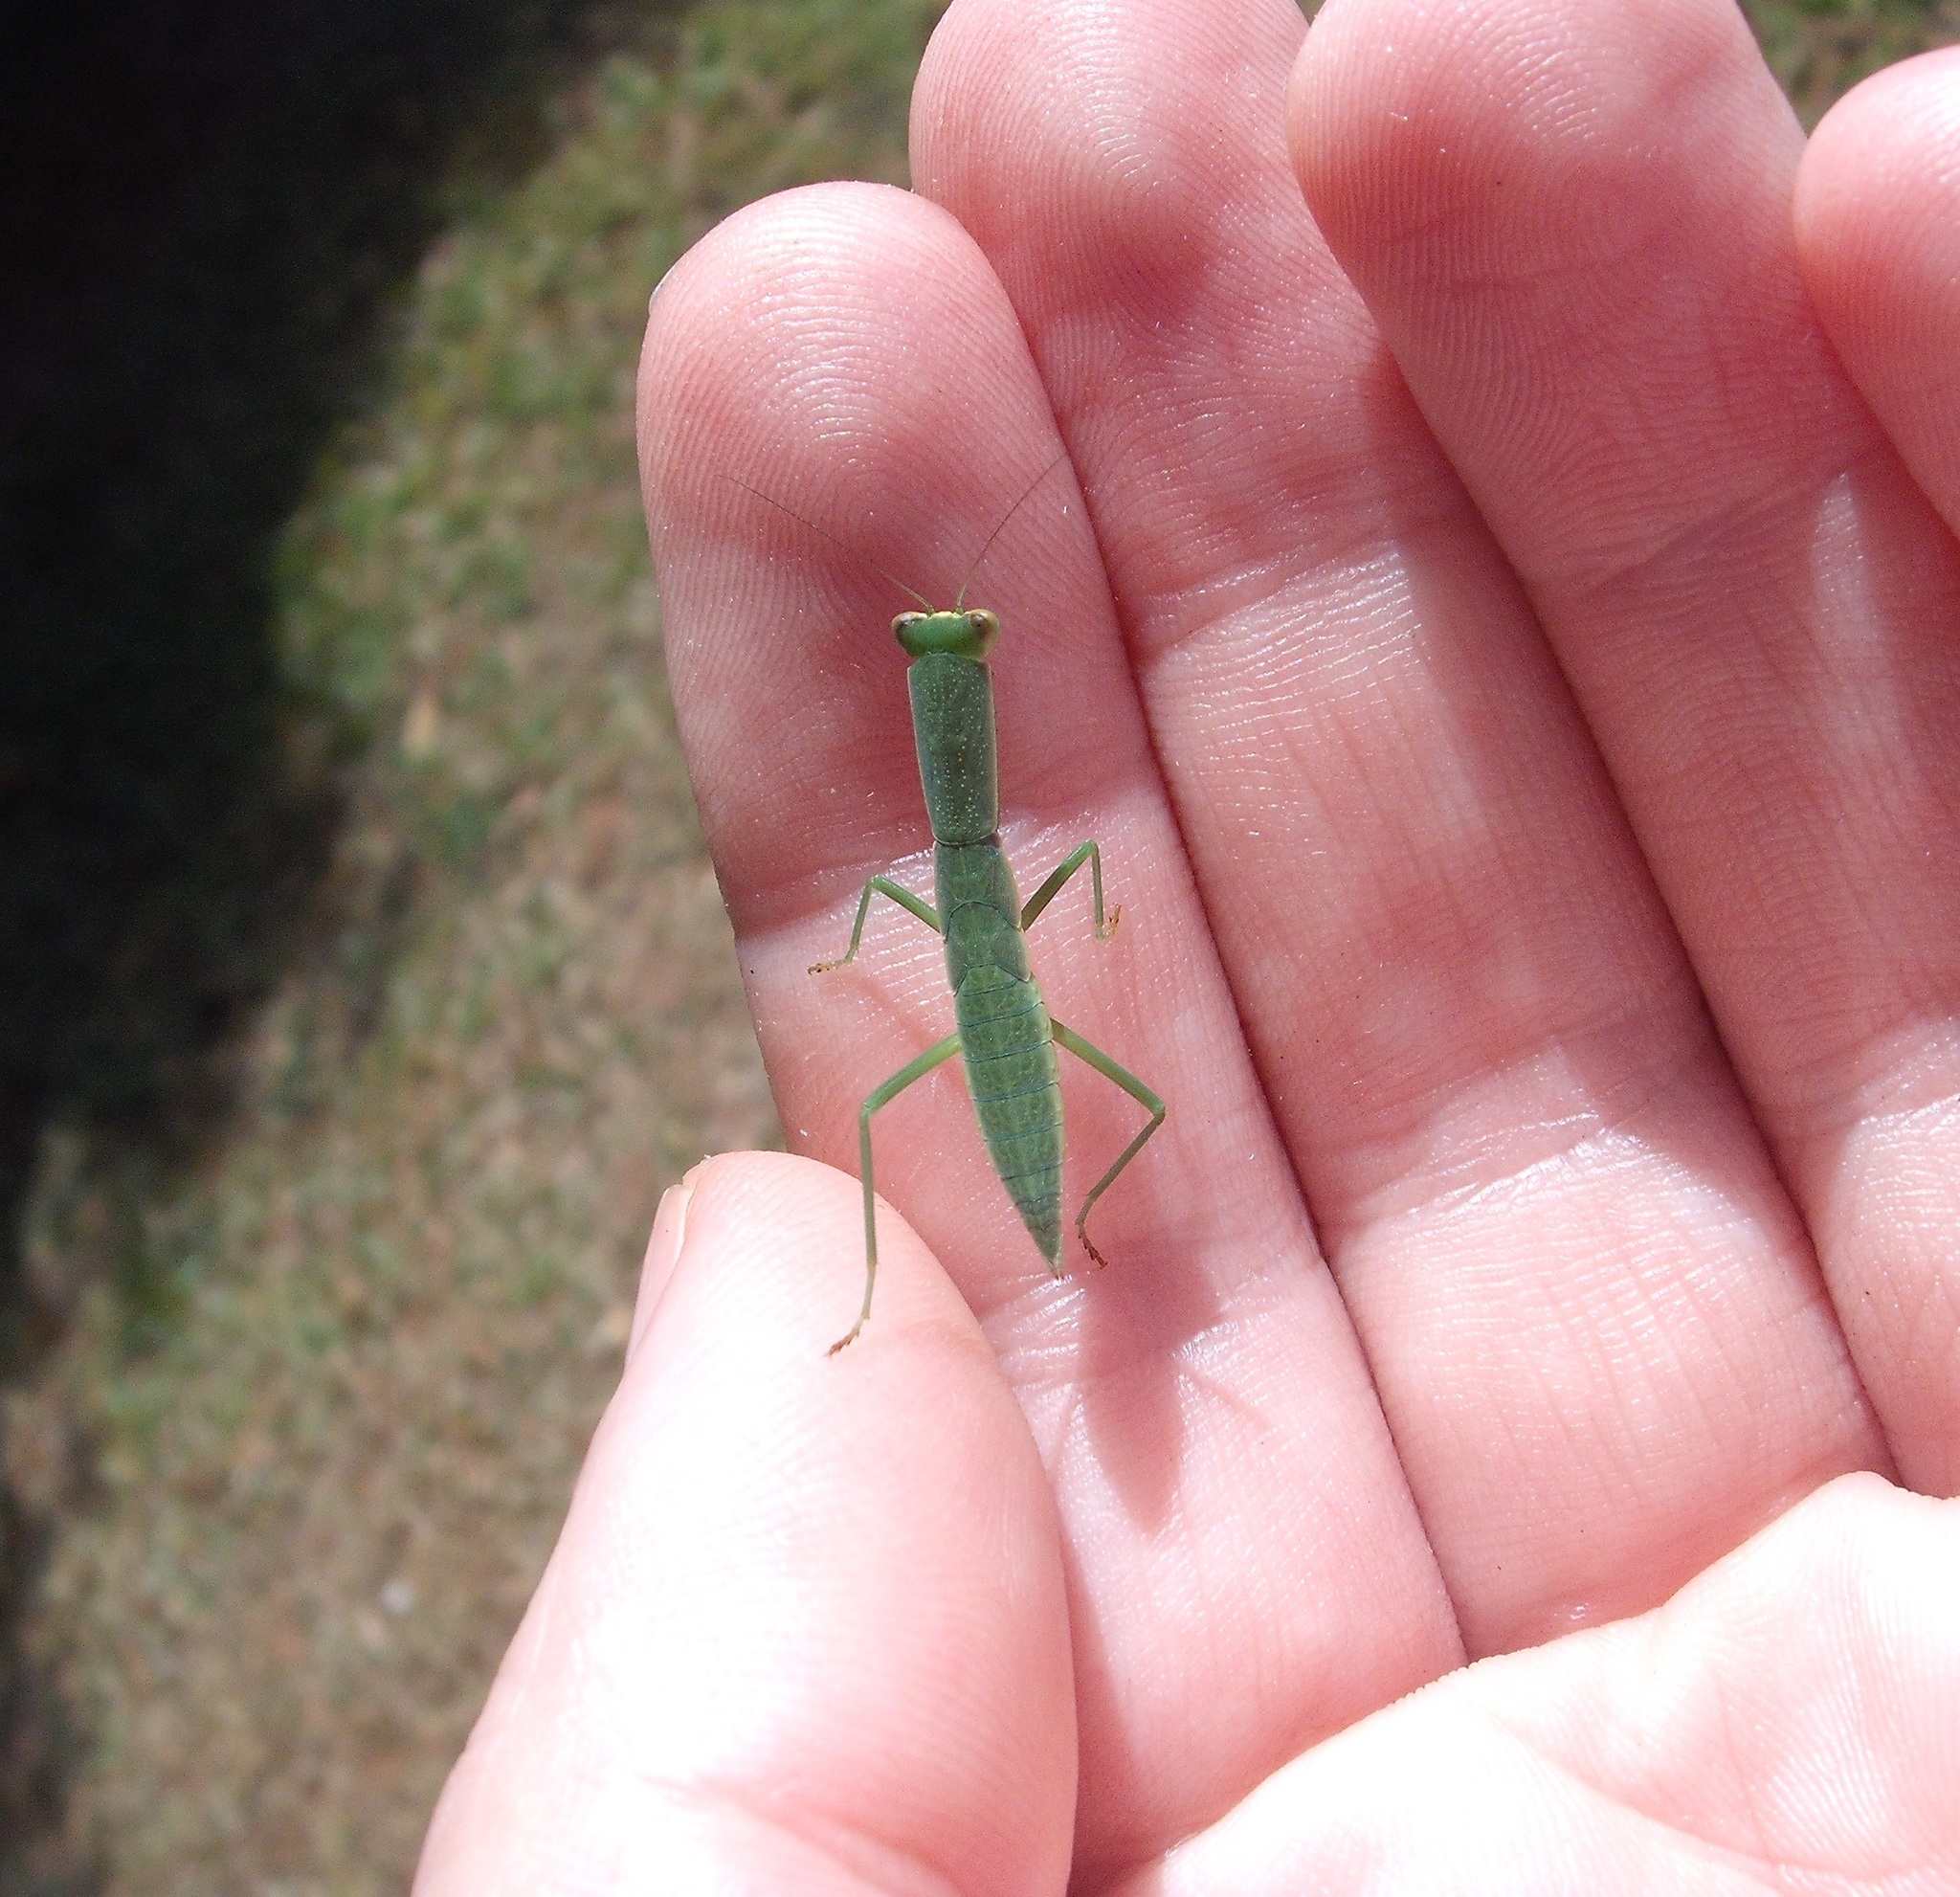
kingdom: Animalia
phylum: Arthropoda
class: Insecta
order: Mantodea
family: Mantidae
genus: Orthodera
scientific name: Orthodera novaezealandiae
